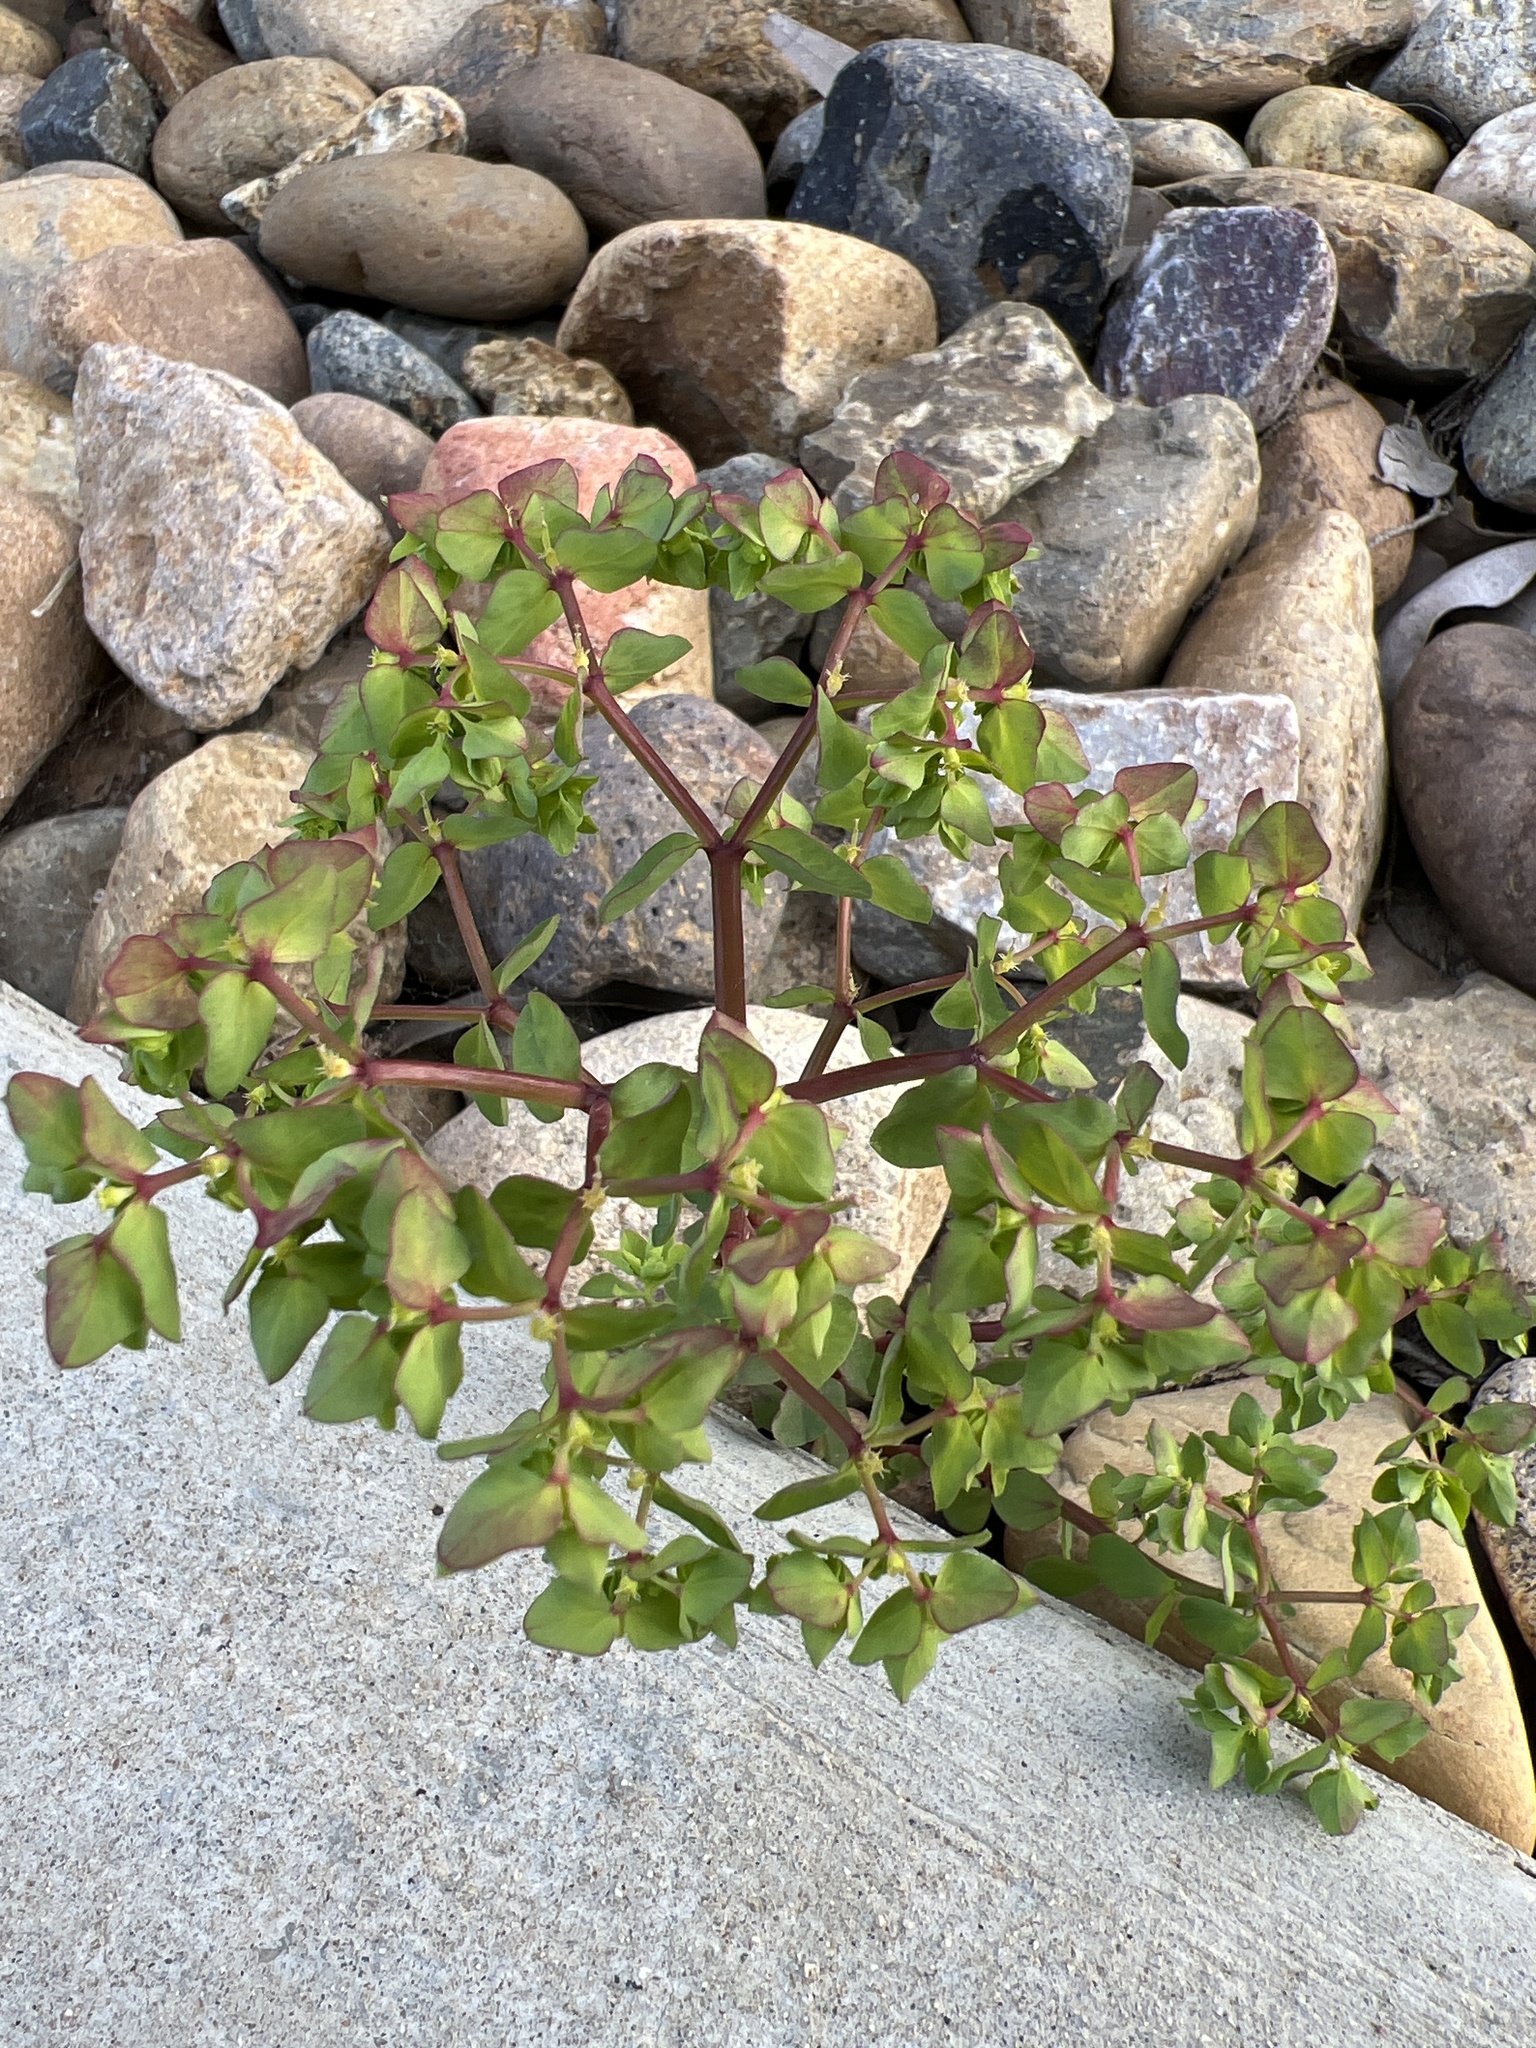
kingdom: Plantae
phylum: Tracheophyta
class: Magnoliopsida
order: Malpighiales
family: Euphorbiaceae
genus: Euphorbia
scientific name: Euphorbia peplus
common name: Petty spurge
